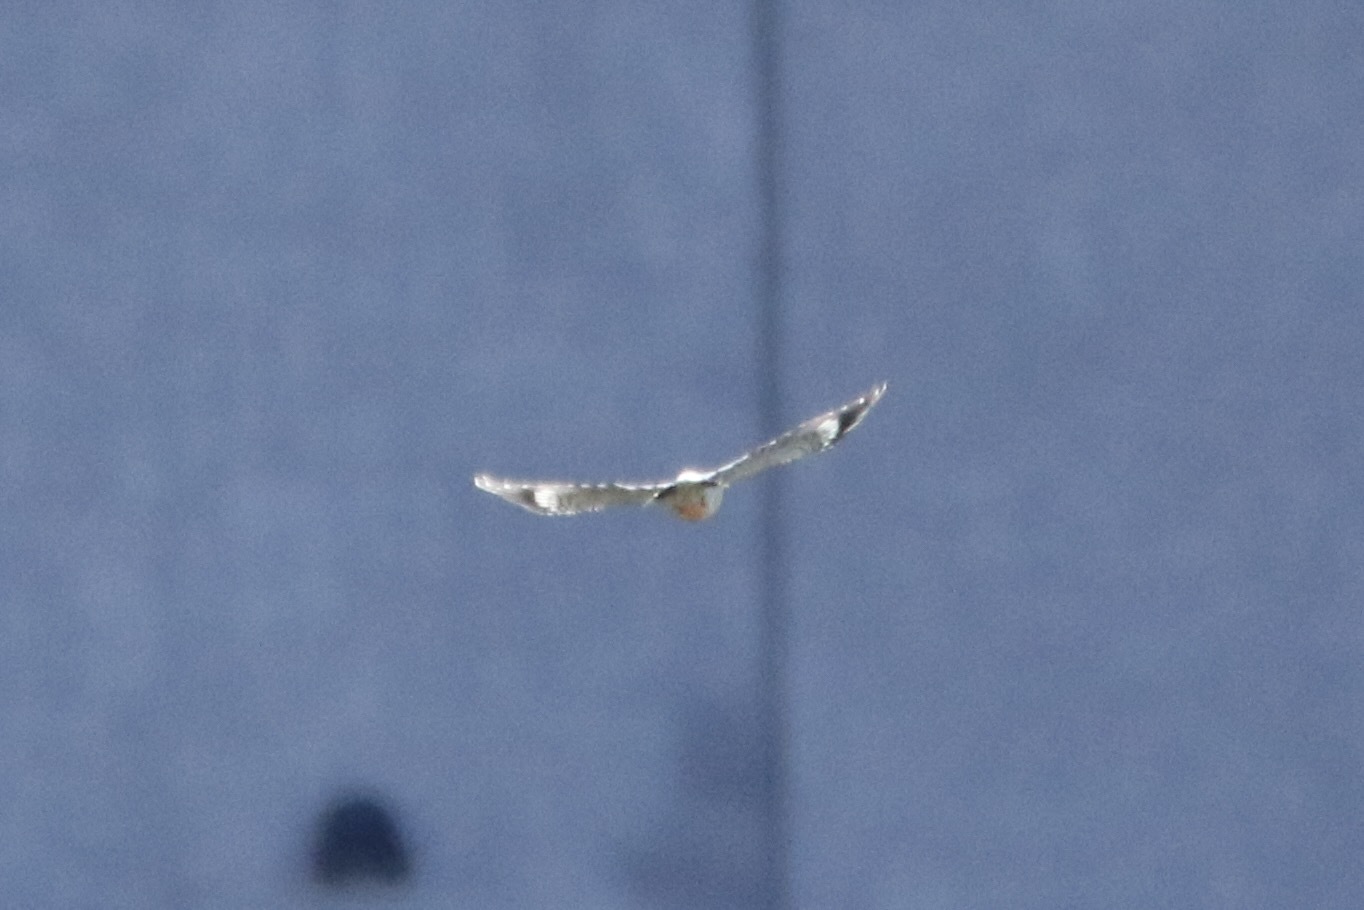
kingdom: Animalia
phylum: Chordata
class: Aves
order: Piciformes
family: Picidae
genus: Melanerpes
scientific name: Melanerpes carolinus
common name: Red-bellied woodpecker
